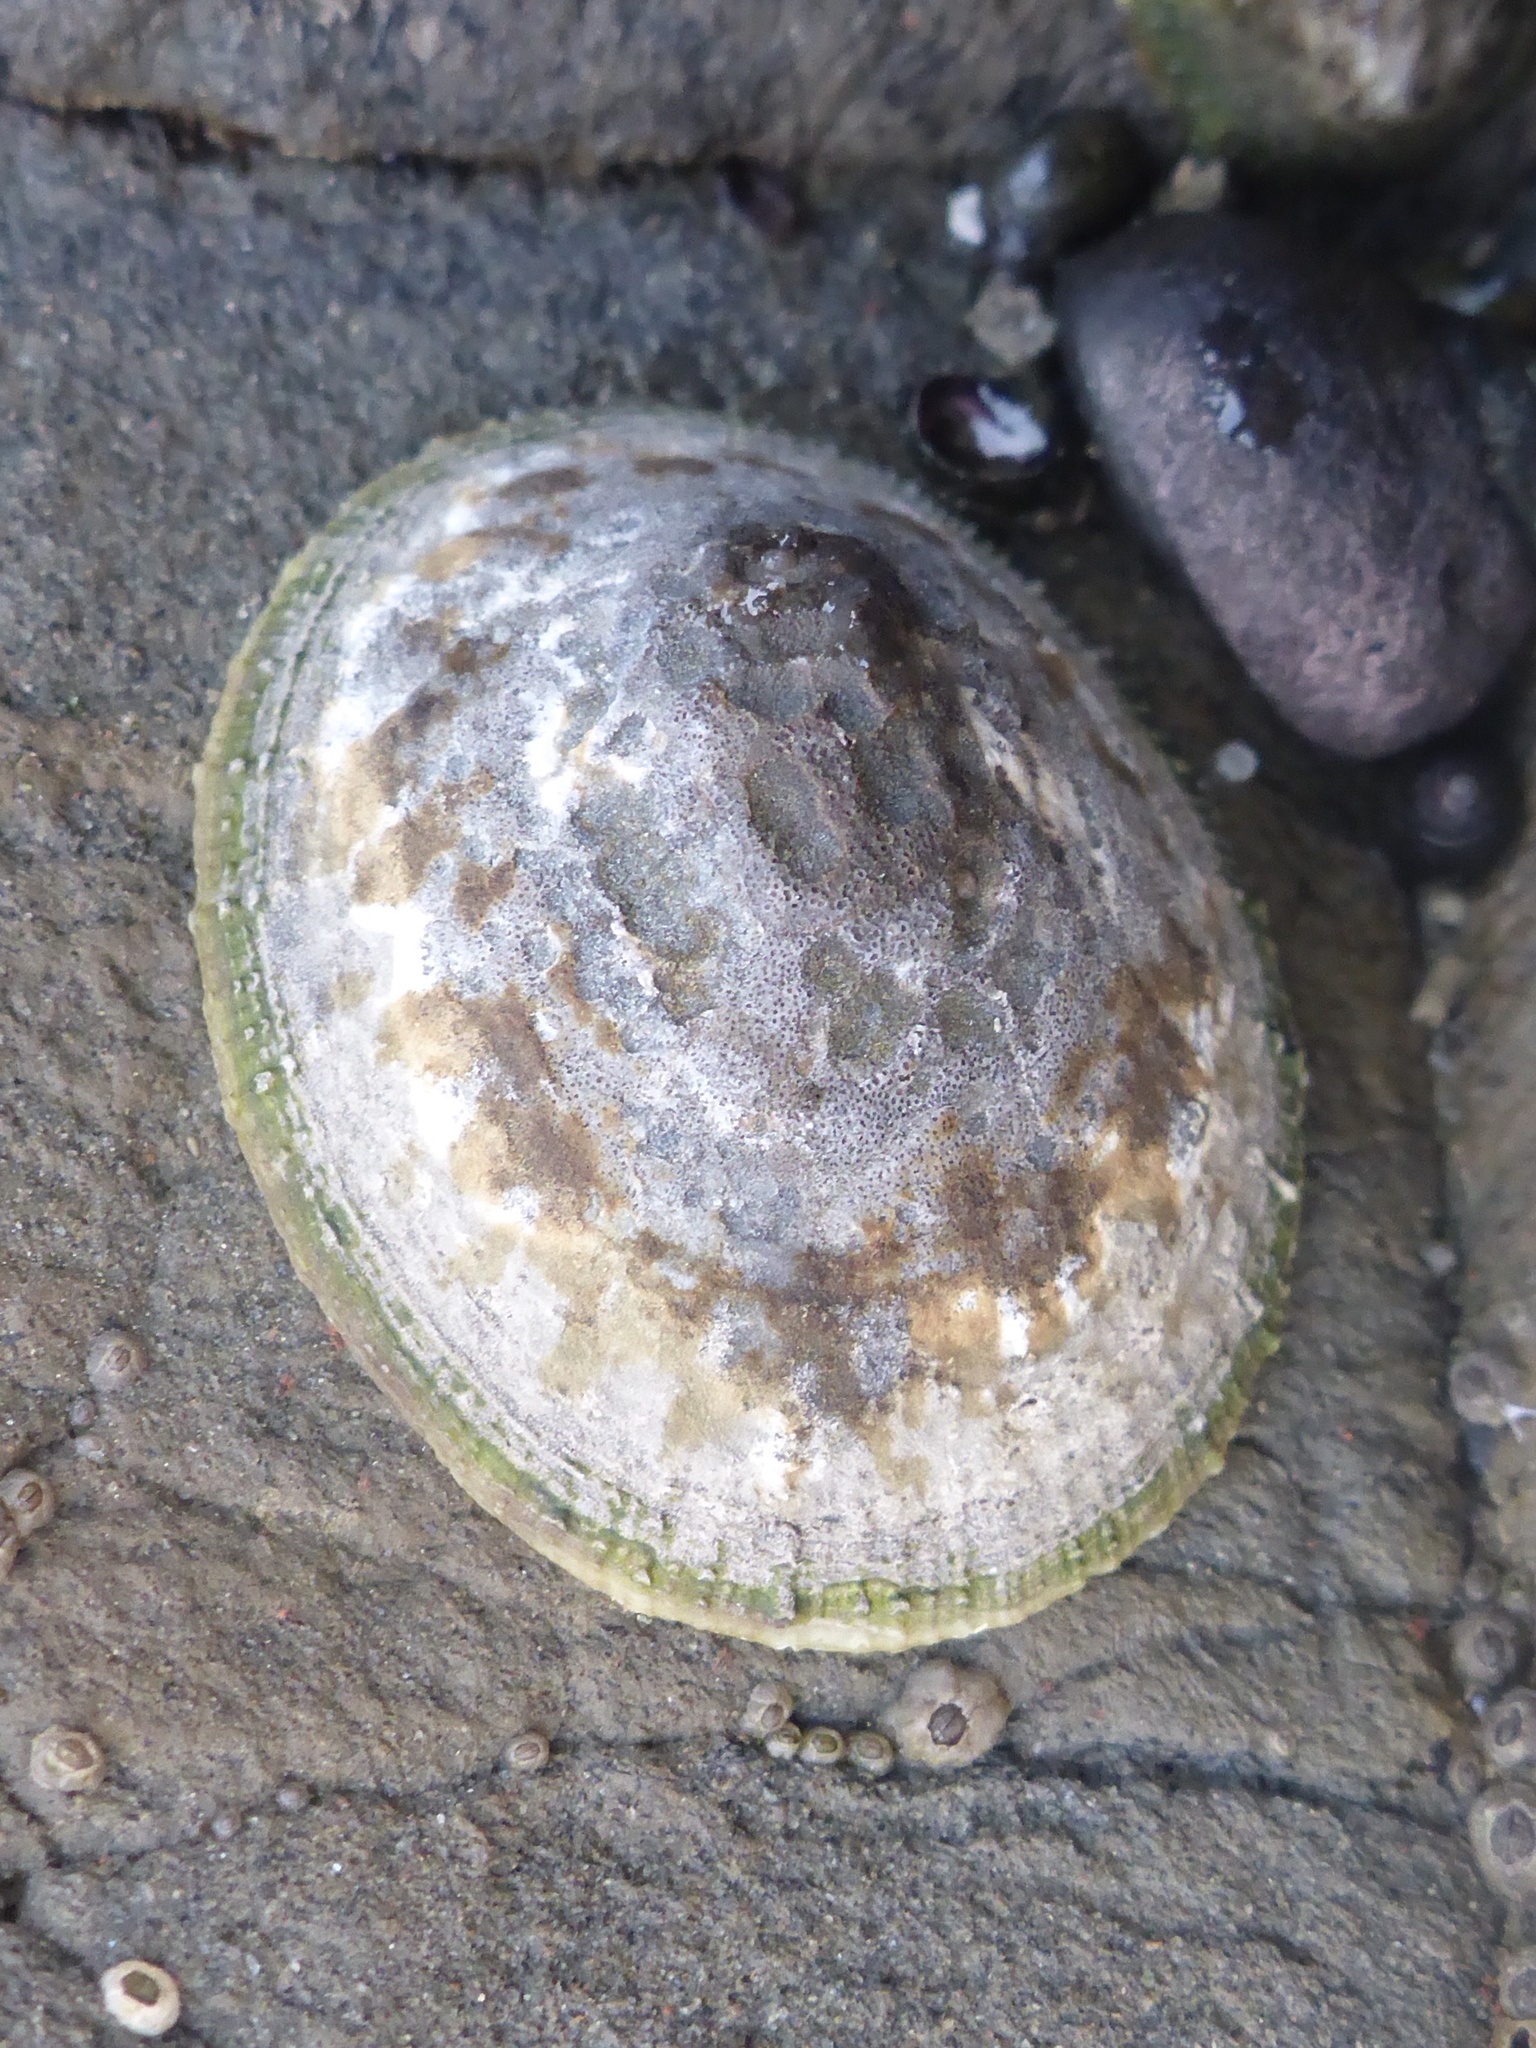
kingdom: Animalia
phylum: Mollusca
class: Gastropoda
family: Lottiidae
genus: Lottia
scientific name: Lottia limatula
